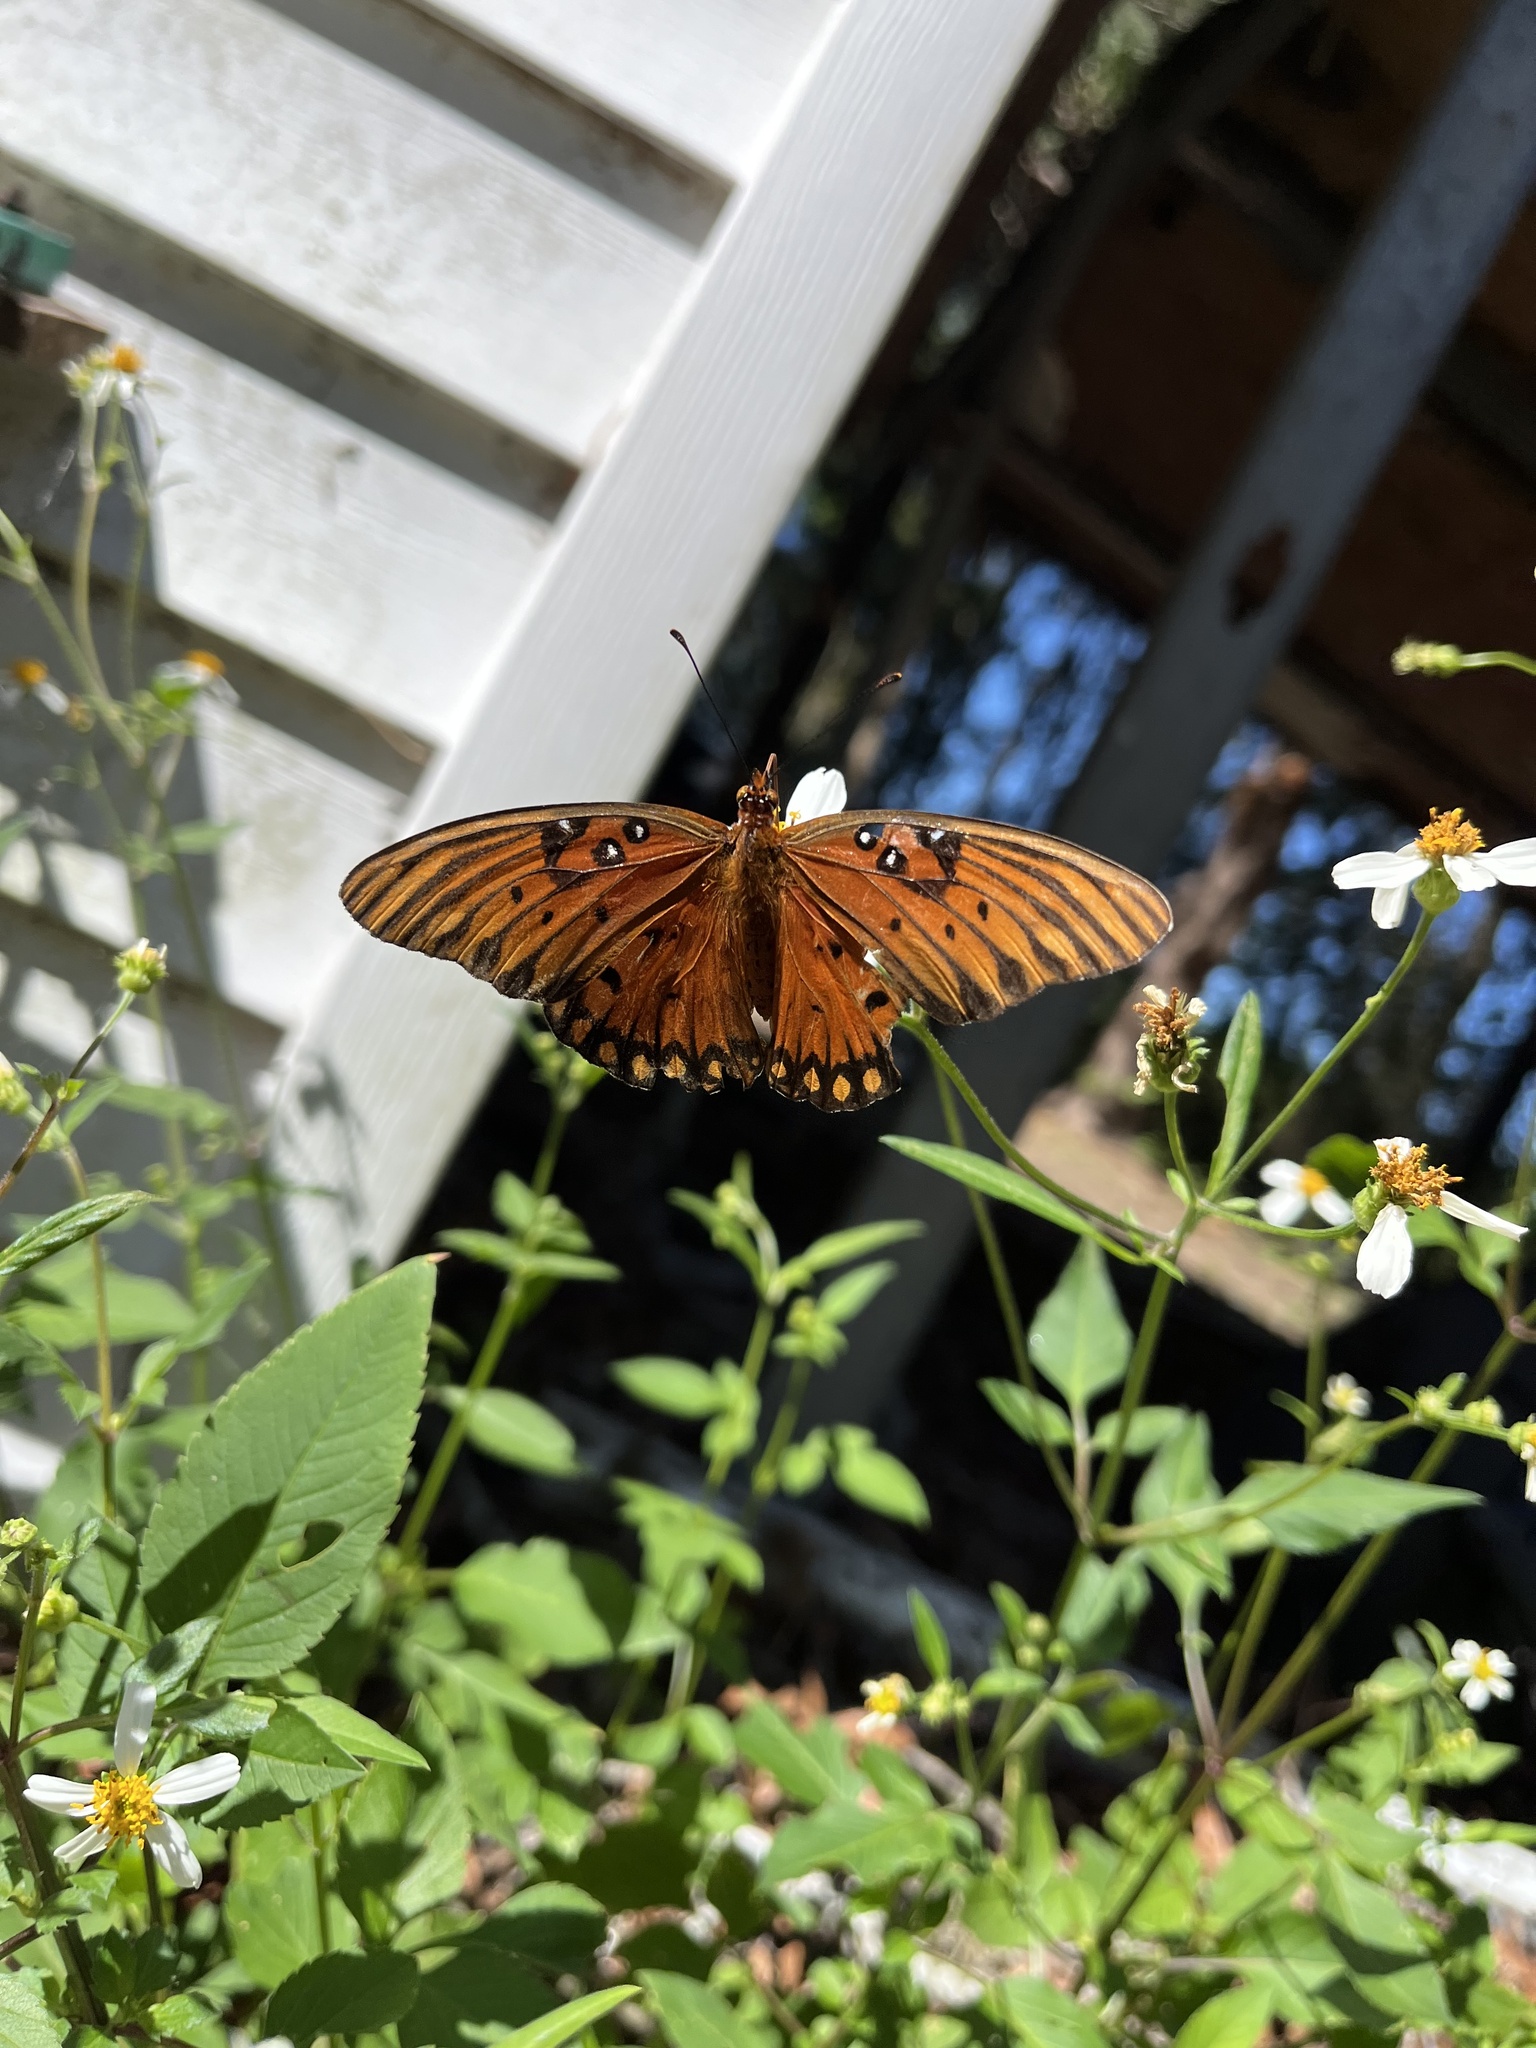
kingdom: Animalia
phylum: Arthropoda
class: Insecta
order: Lepidoptera
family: Nymphalidae
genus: Dione
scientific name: Dione vanillae
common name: Gulf fritillary
